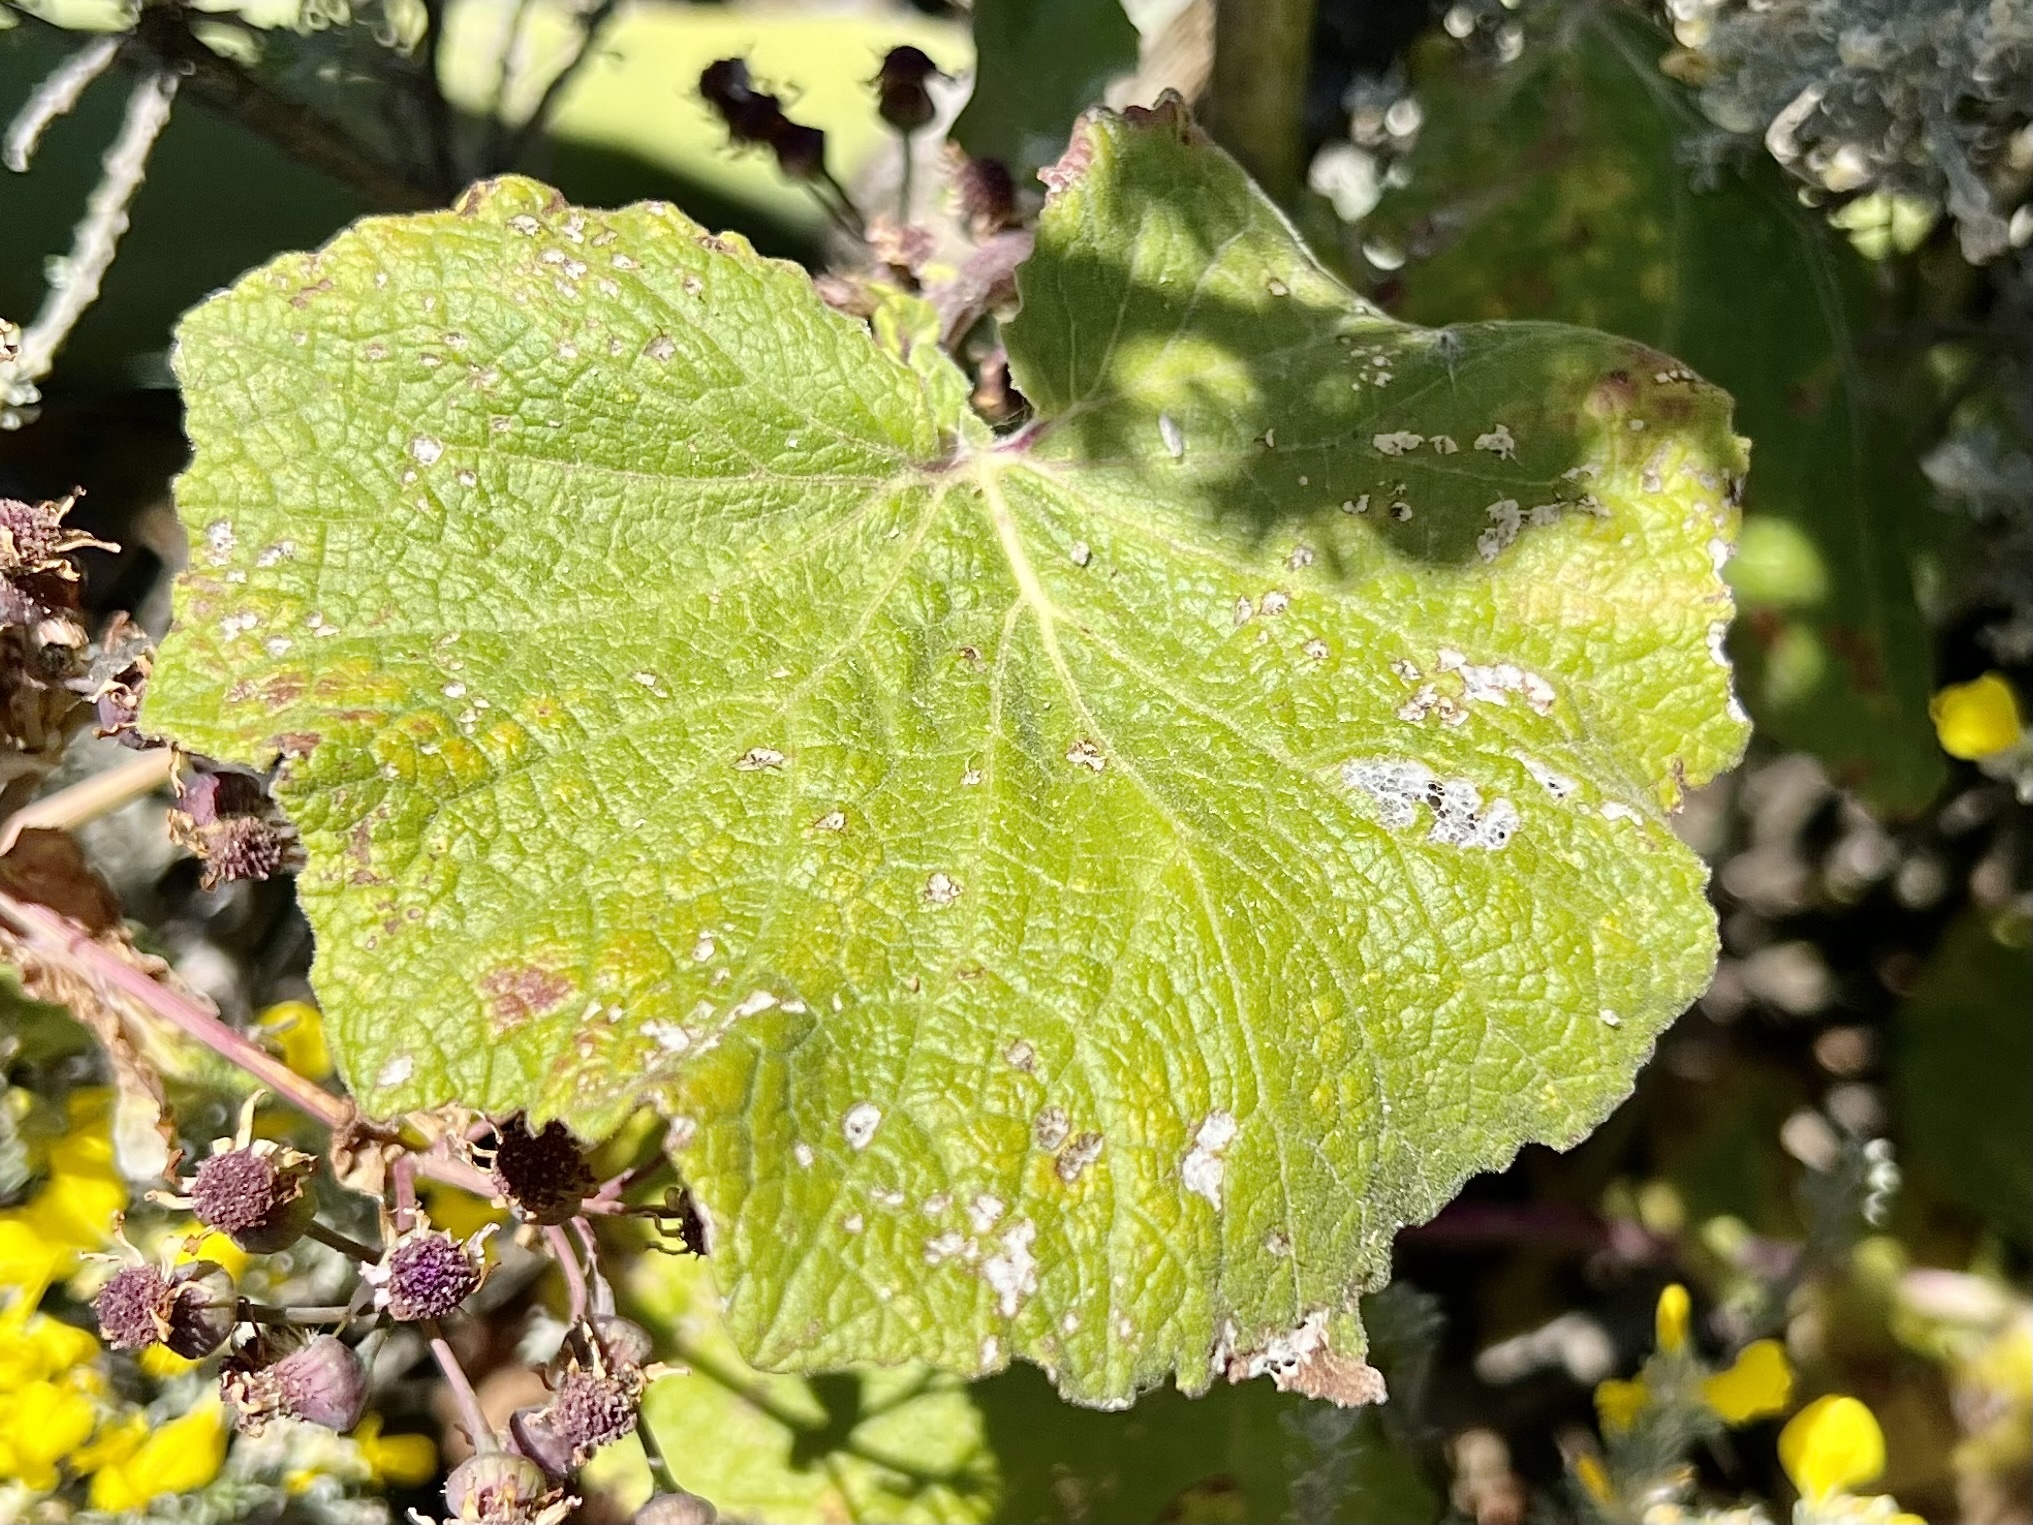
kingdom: Plantae
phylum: Tracheophyta
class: Magnoliopsida
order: Asterales
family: Asteraceae
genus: Pericallis
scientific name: Pericallis webbii
